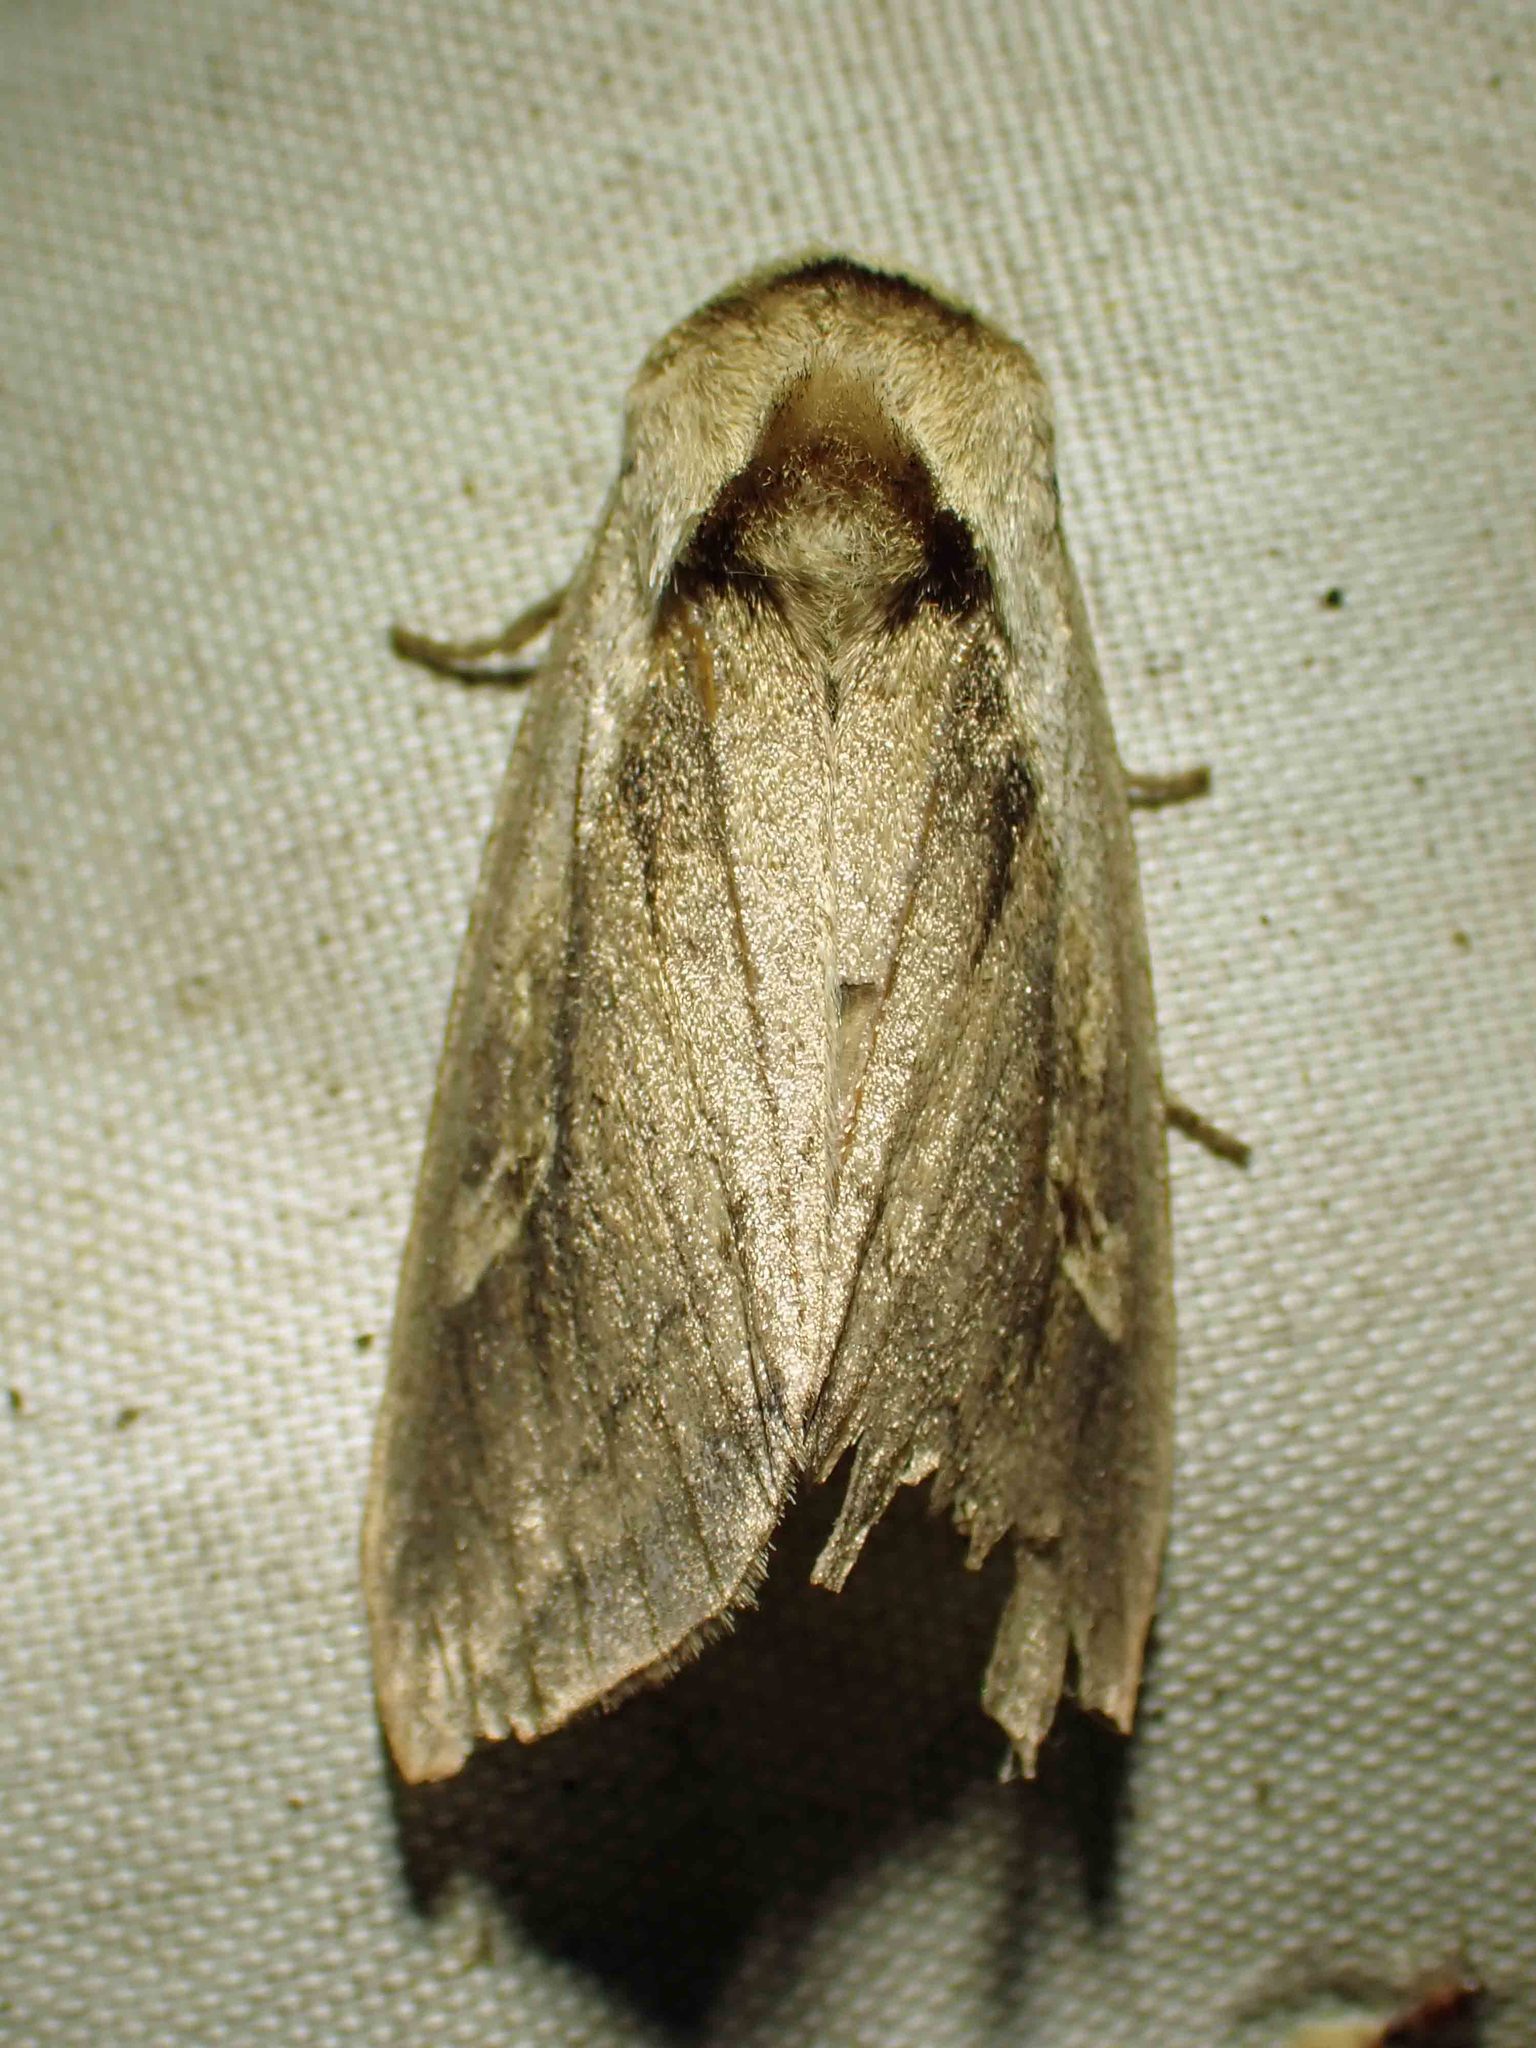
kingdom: Animalia
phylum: Arthropoda
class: Insecta
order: Lepidoptera
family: Noctuidae
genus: Bellura
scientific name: Bellura obliqua
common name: Cattail borer moth
